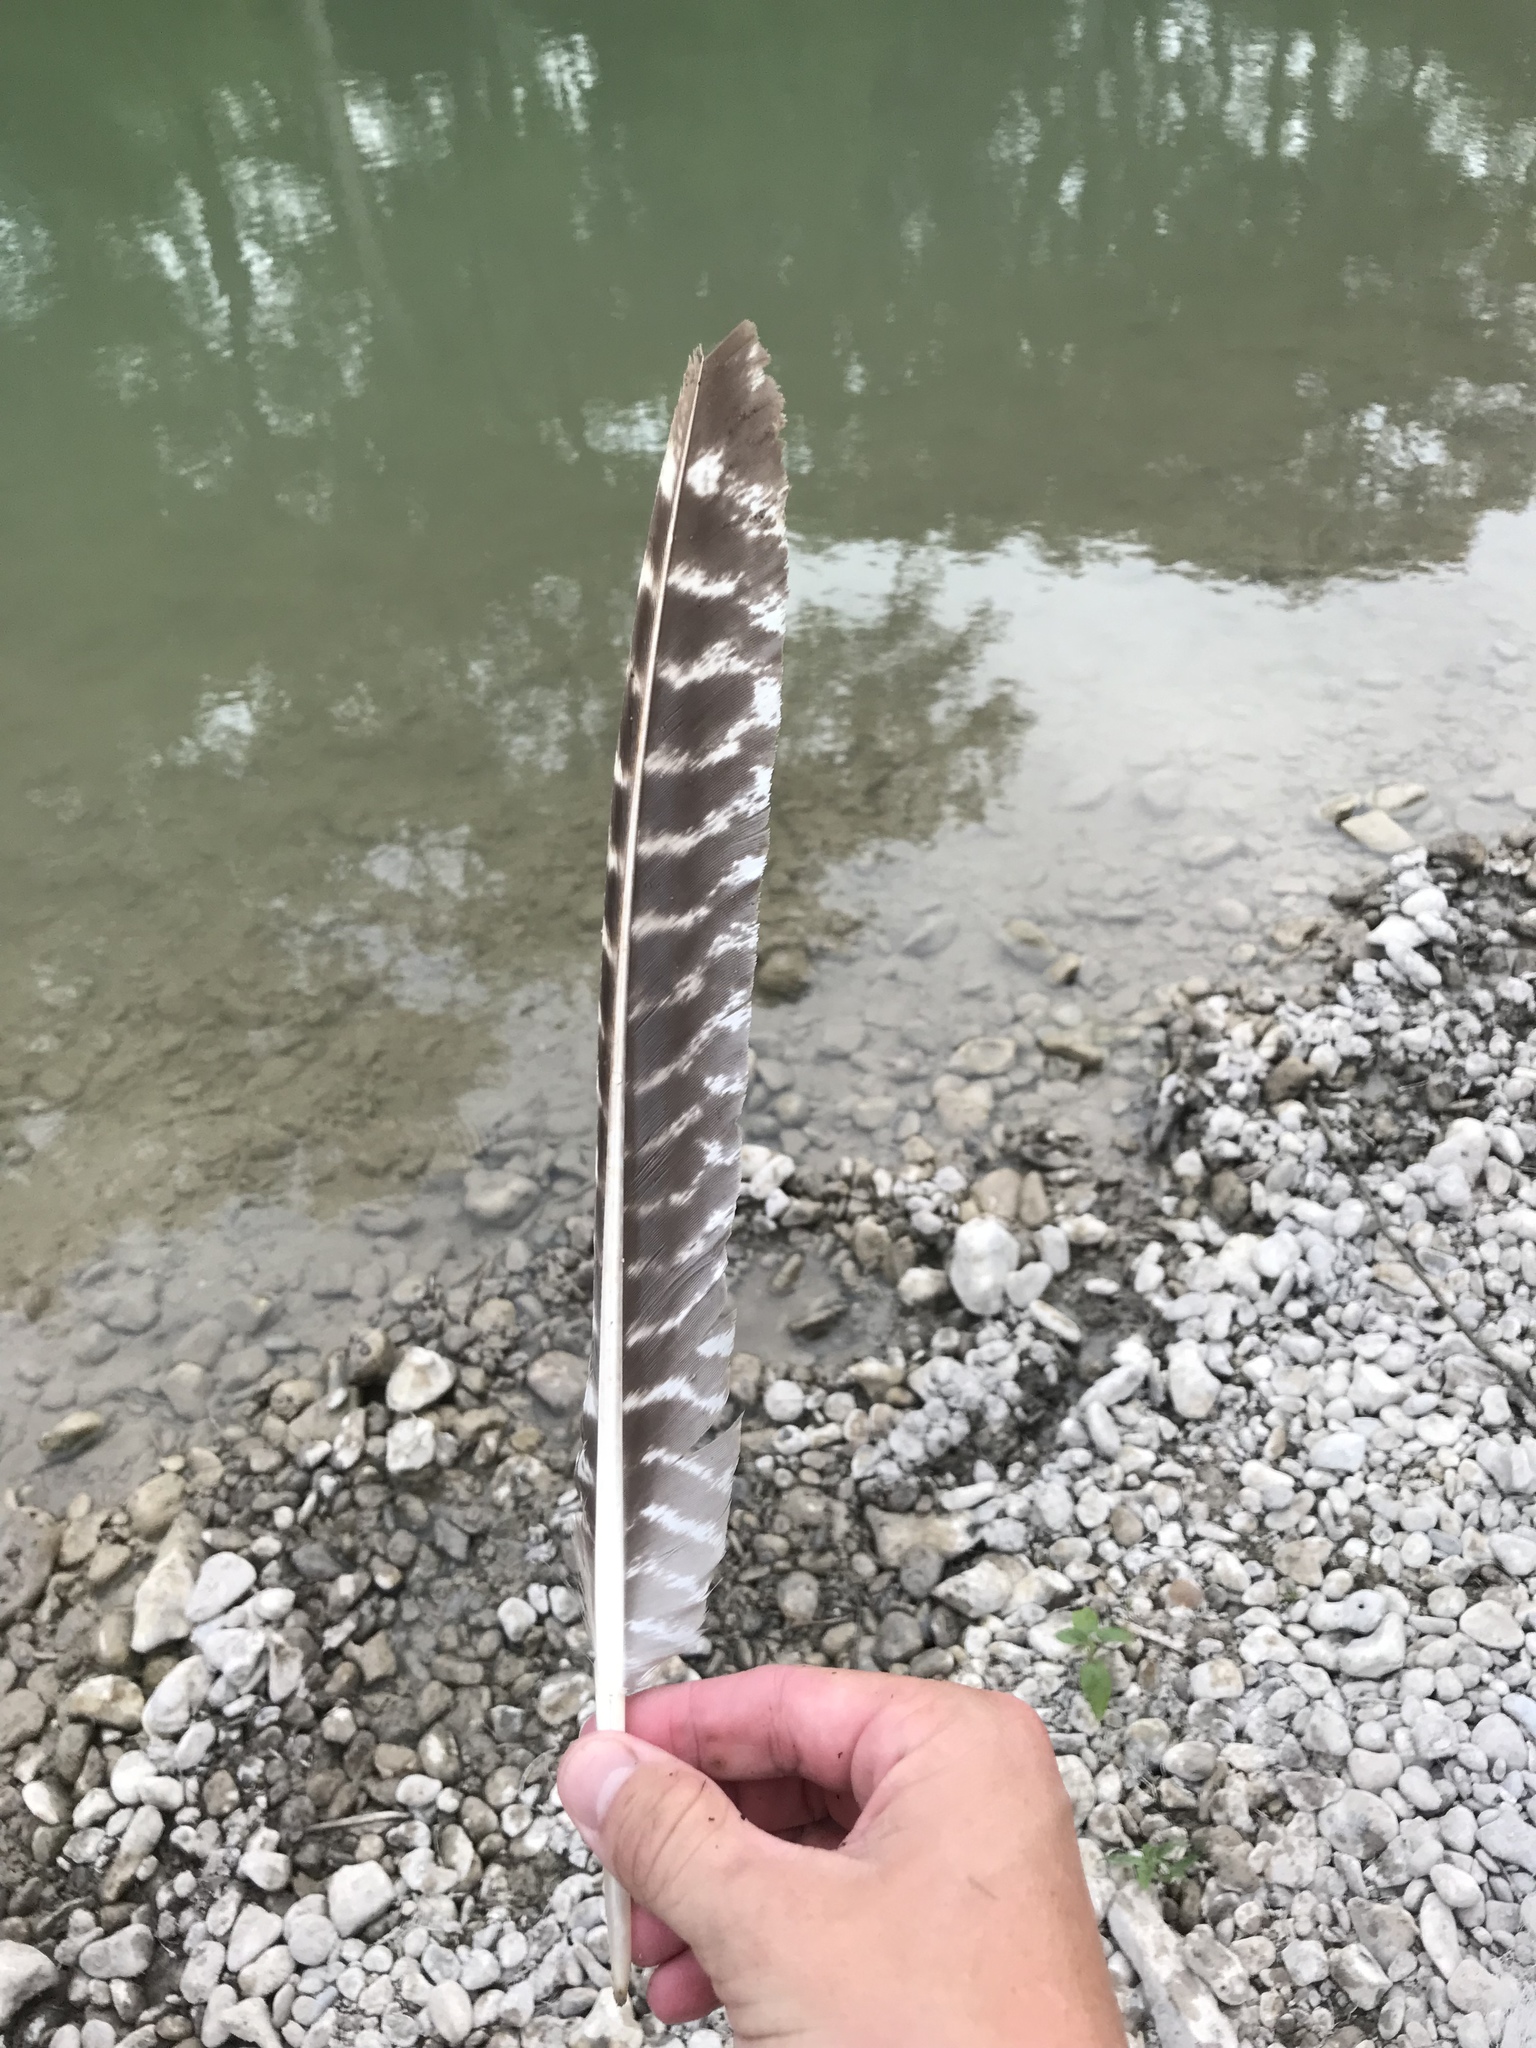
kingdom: Animalia
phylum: Chordata
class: Aves
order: Galliformes
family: Phasianidae
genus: Meleagris
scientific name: Meleagris gallopavo
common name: Wild turkey
